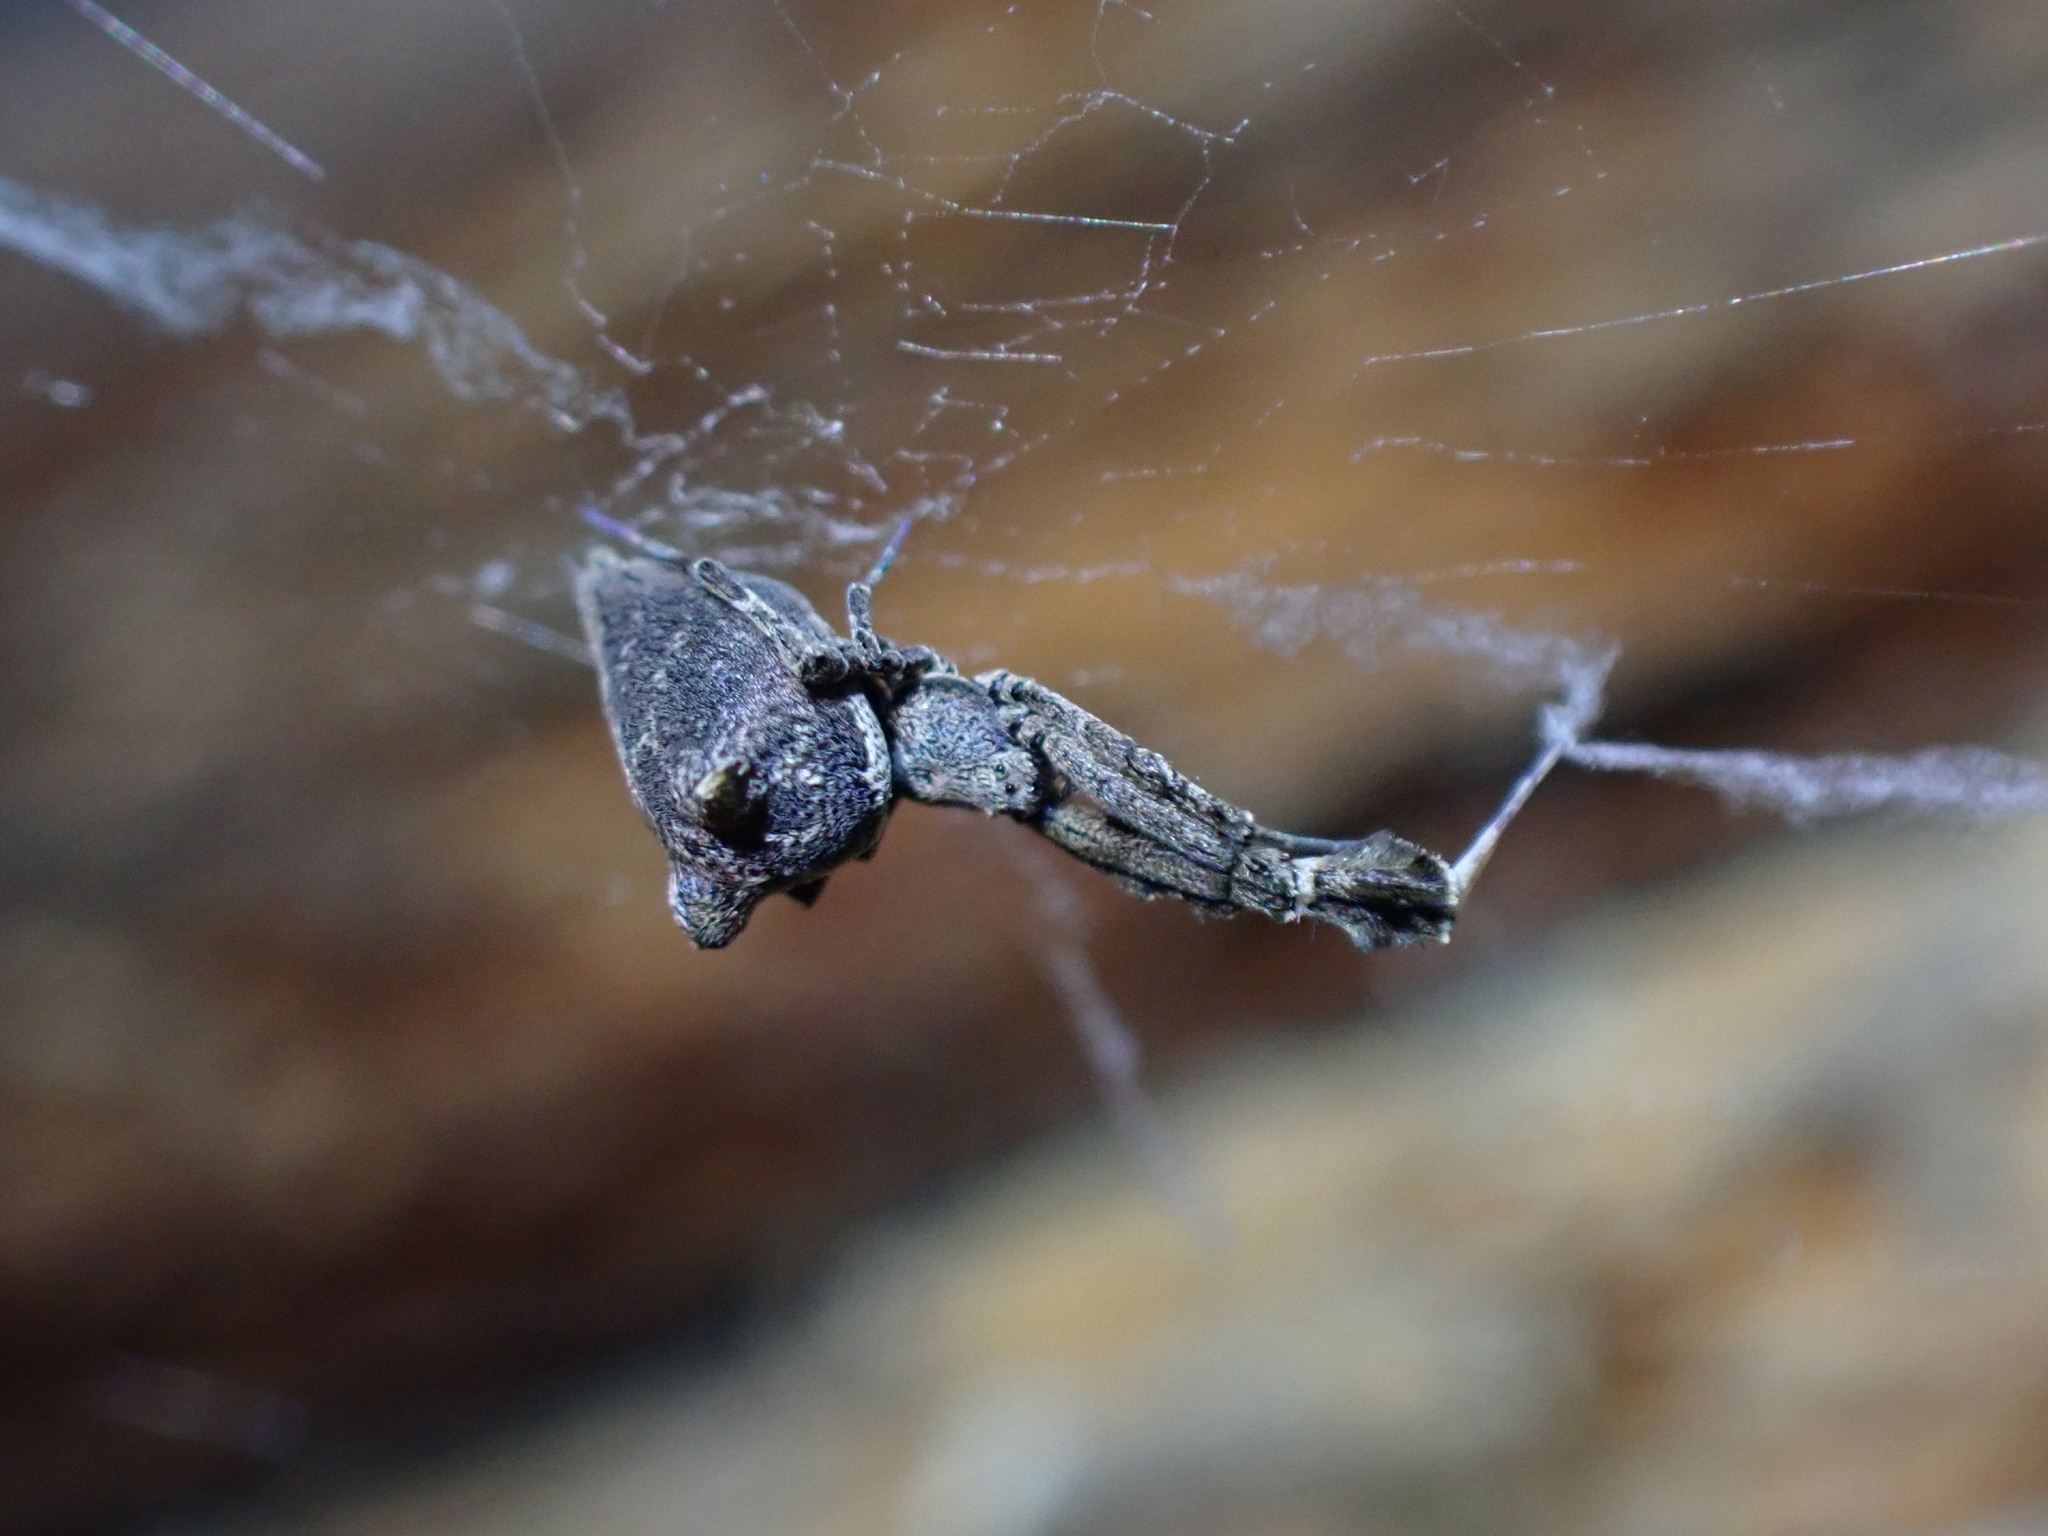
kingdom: Animalia
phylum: Arthropoda
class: Arachnida
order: Araneae
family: Uloboridae
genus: Uloborus
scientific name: Uloborus plumipes
